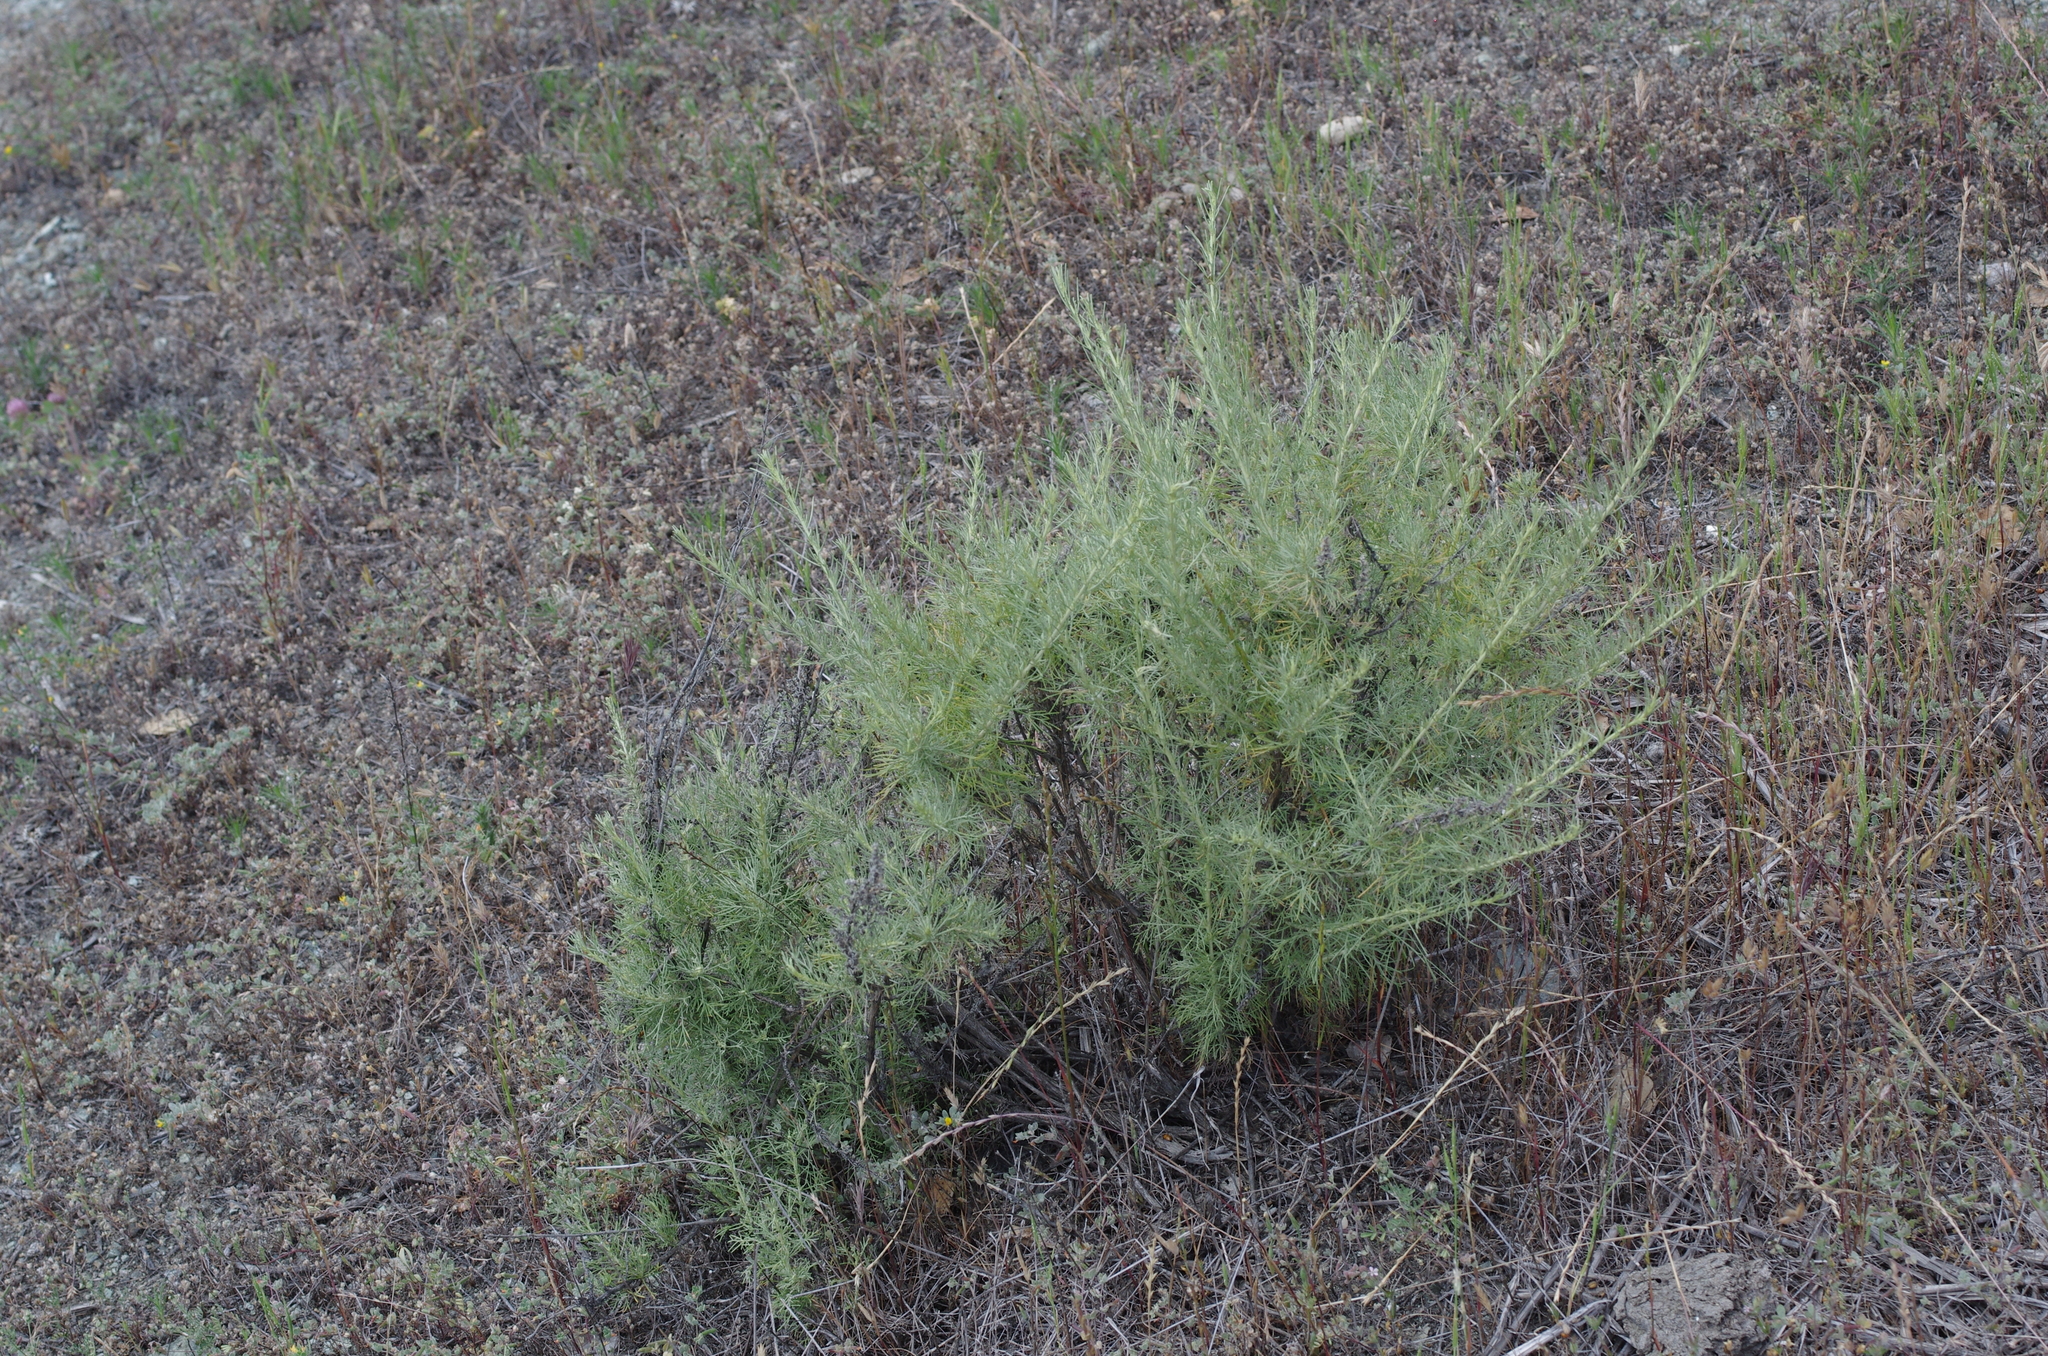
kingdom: Plantae
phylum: Tracheophyta
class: Magnoliopsida
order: Asterales
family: Asteraceae
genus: Artemisia
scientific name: Artemisia californica
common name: California sagebrush
